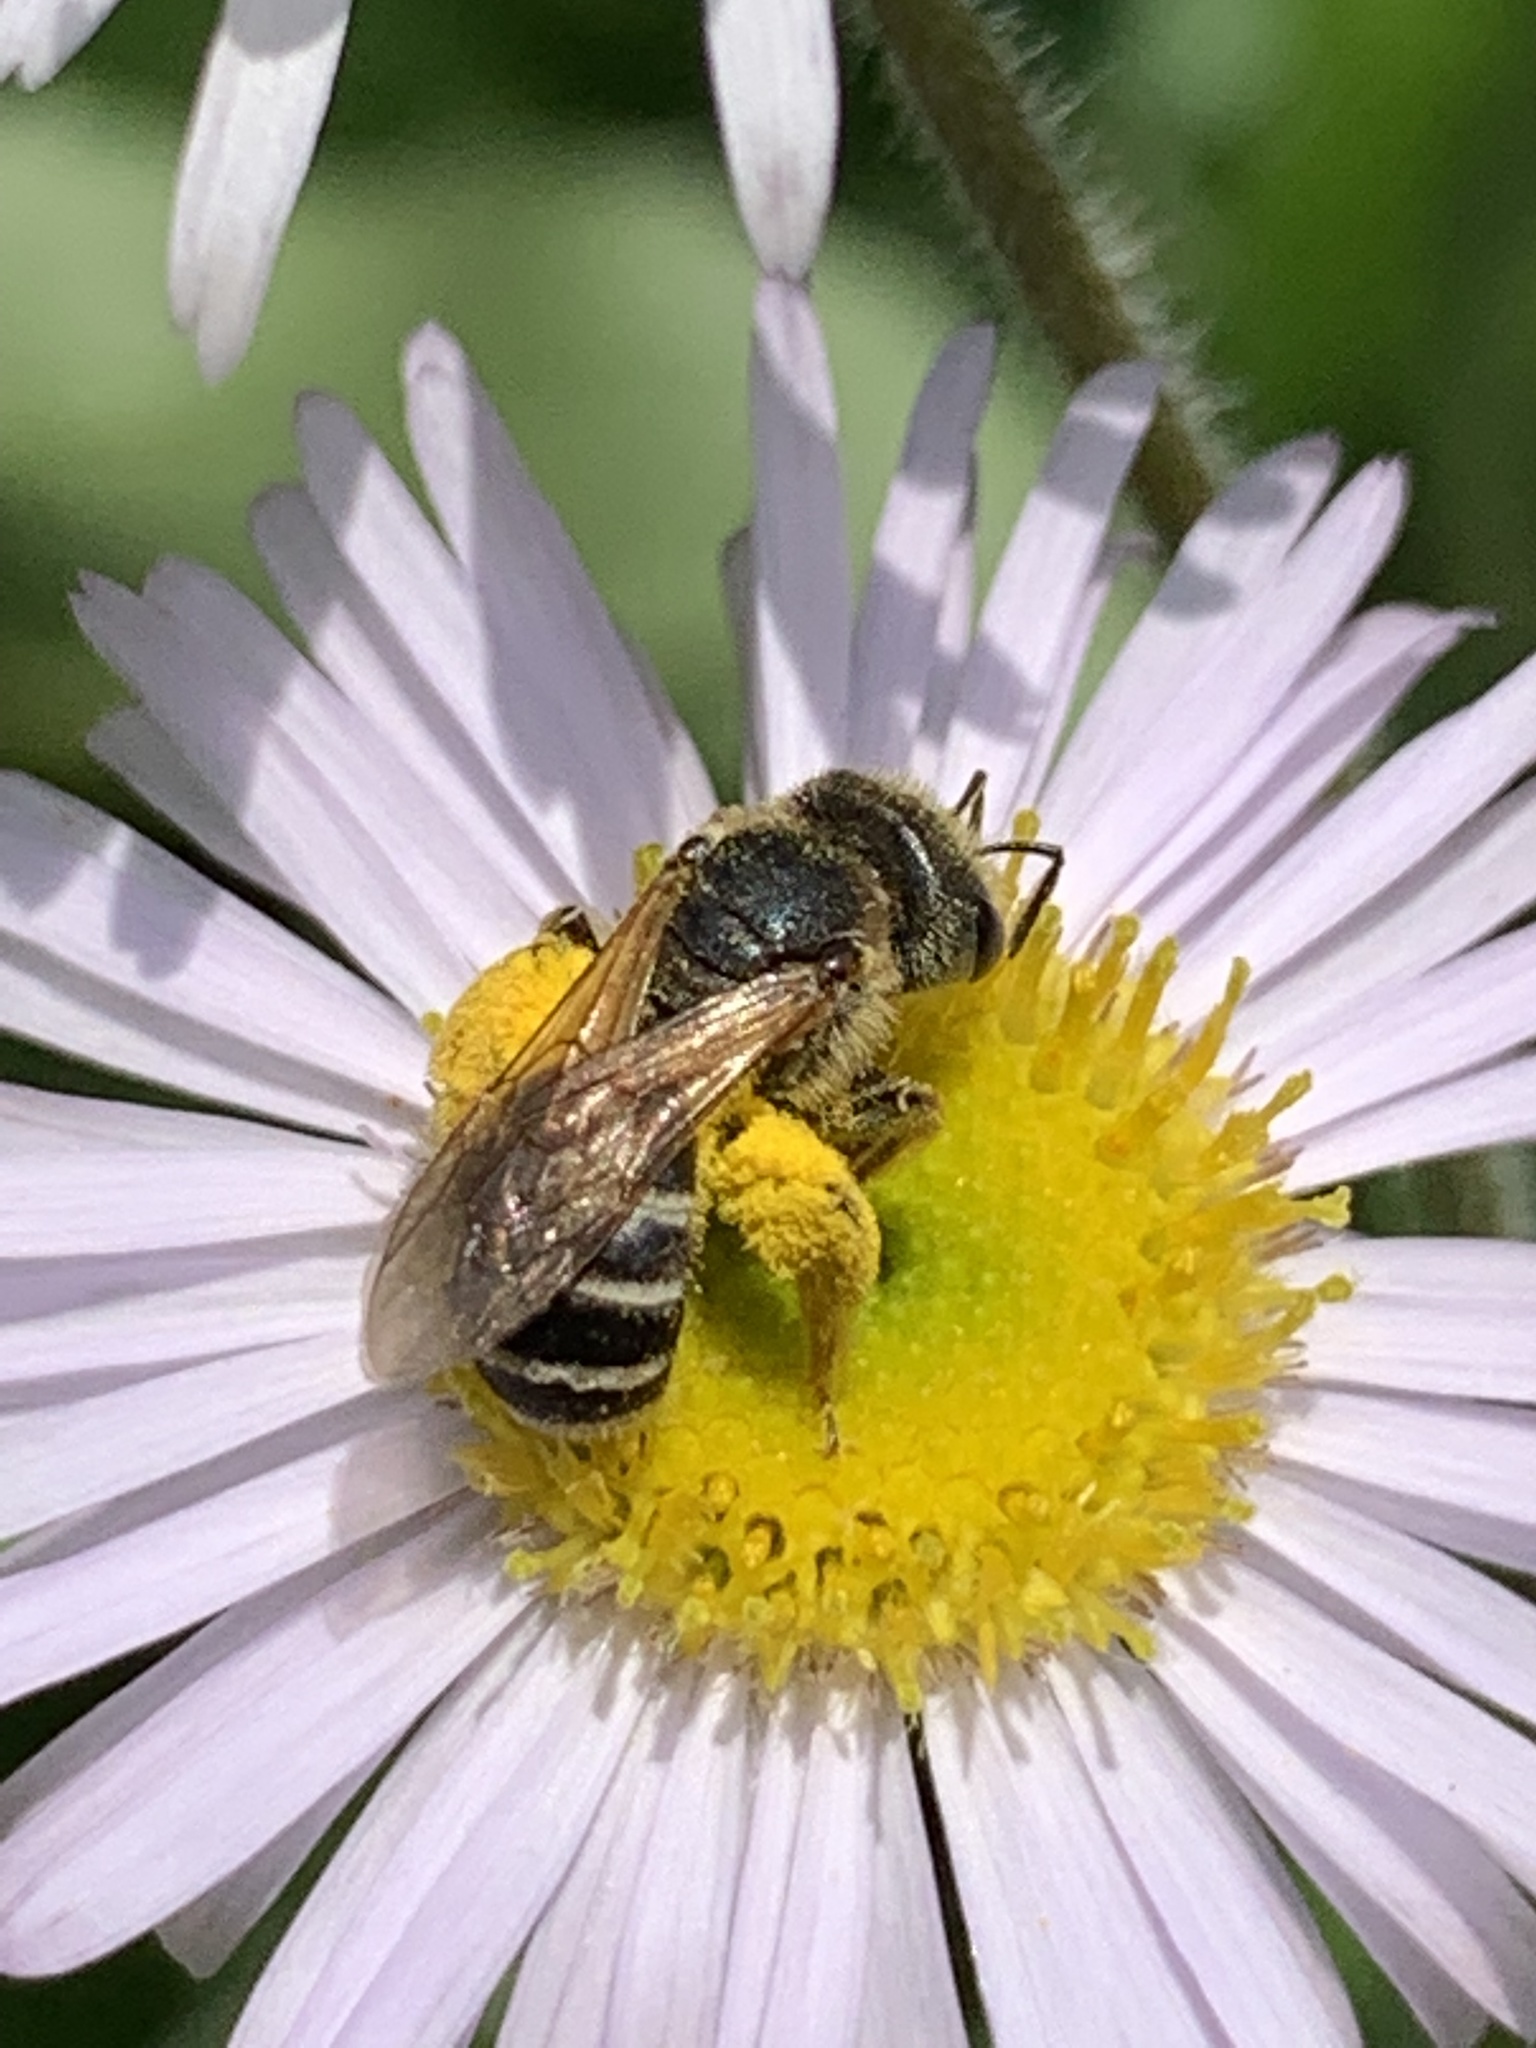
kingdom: Animalia
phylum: Arthropoda
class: Insecta
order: Hymenoptera
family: Halictidae
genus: Halictus
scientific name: Halictus ligatus
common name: Ligated furrow bee
